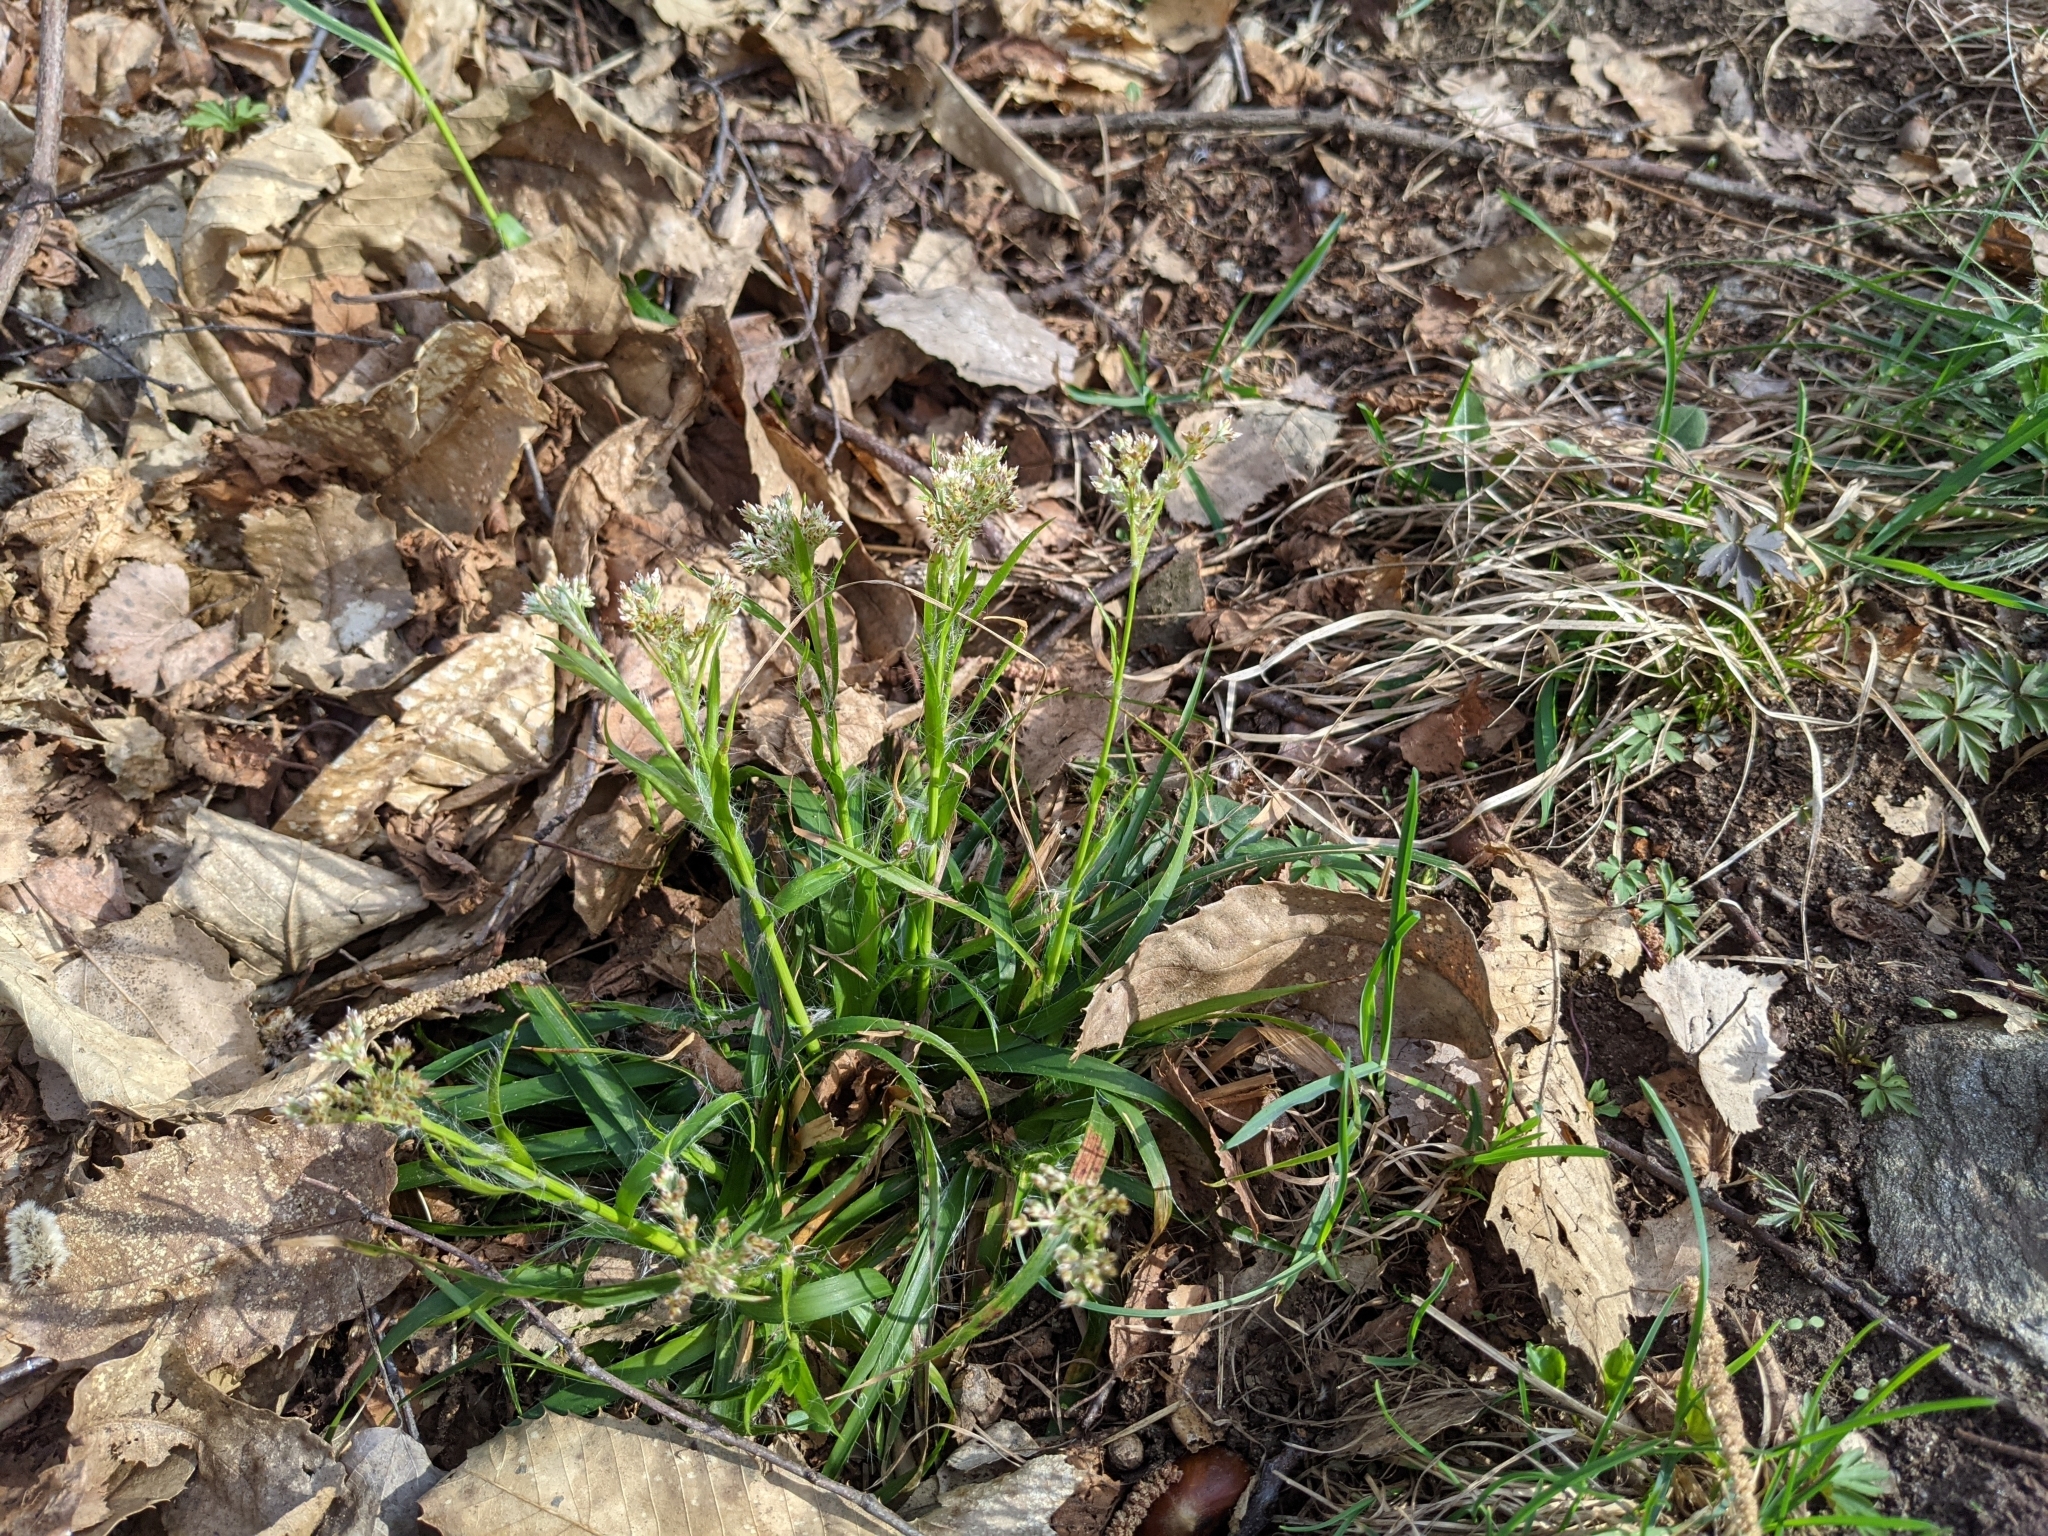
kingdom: Plantae
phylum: Tracheophyta
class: Liliopsida
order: Poales
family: Juncaceae
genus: Luzula
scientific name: Luzula sylvatica
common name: Great wood-rush
